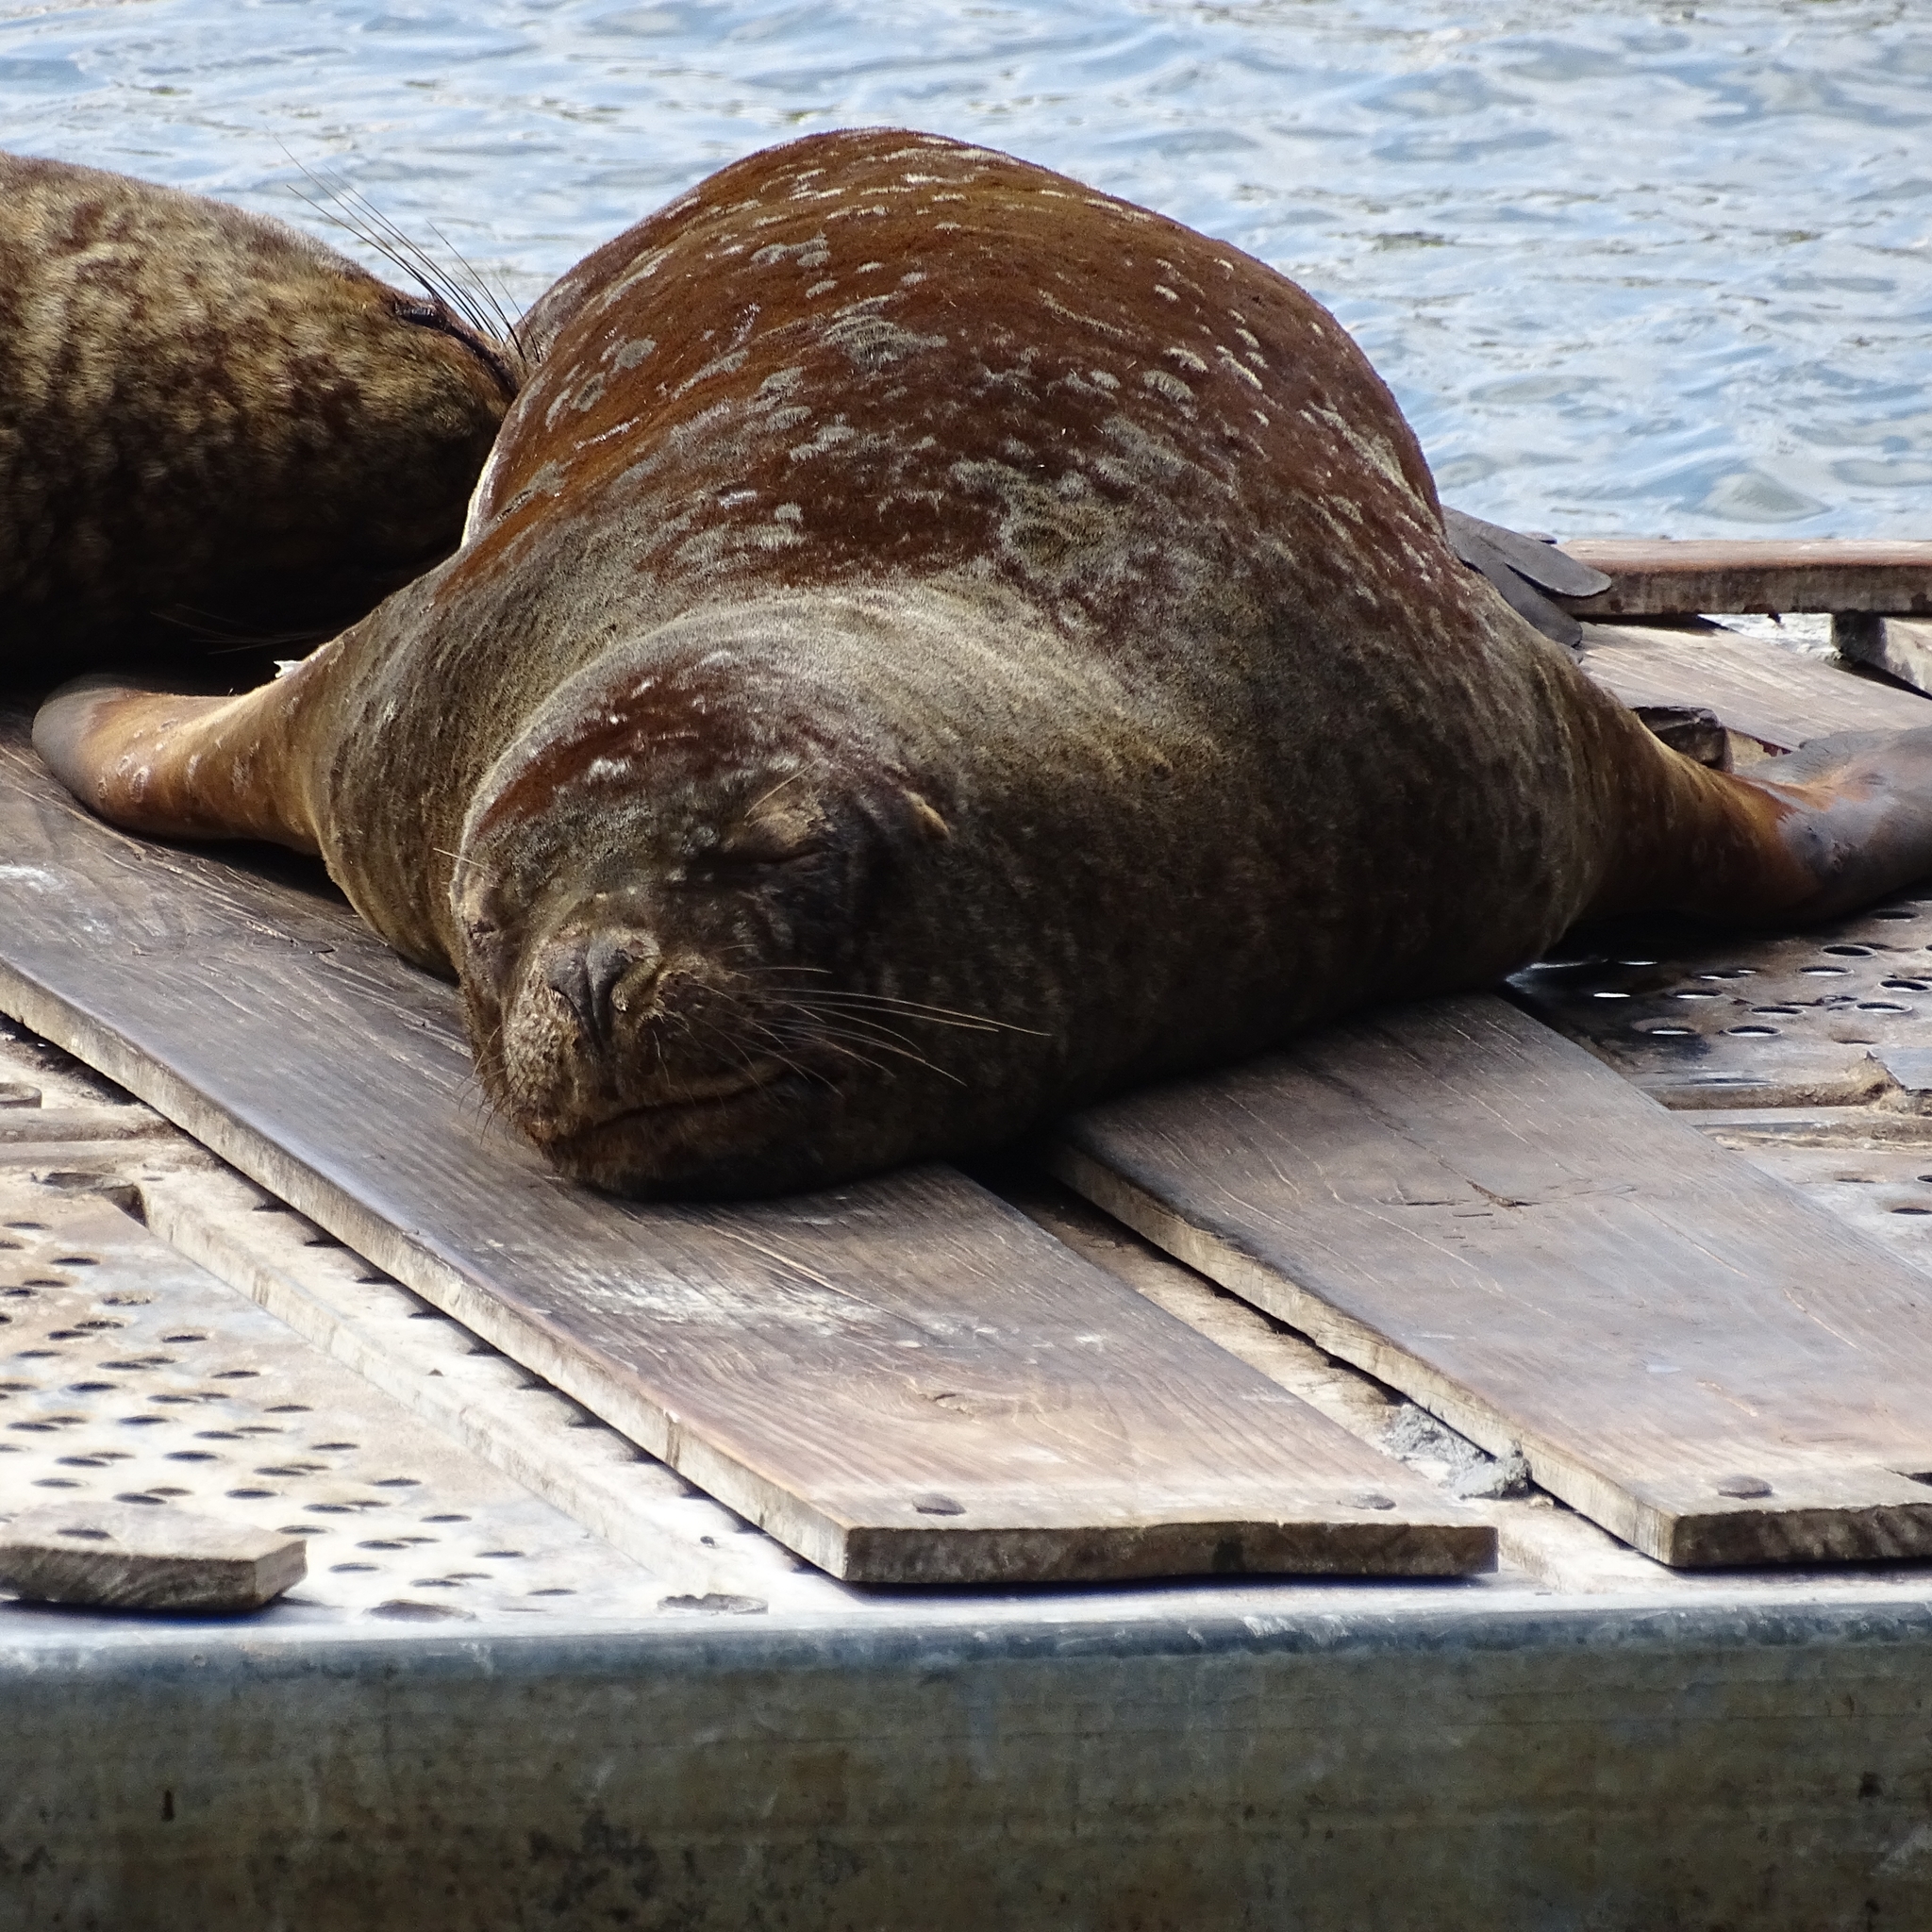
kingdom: Animalia
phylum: Chordata
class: Mammalia
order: Carnivora
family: Otariidae
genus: Otaria
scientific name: Otaria byronia
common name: South american sea lion
